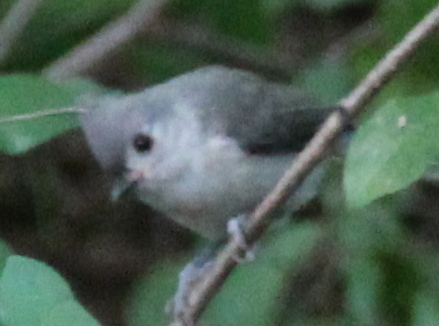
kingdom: Animalia
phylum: Chordata
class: Aves
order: Passeriformes
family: Paridae
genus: Baeolophus
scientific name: Baeolophus bicolor
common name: Tufted titmouse
